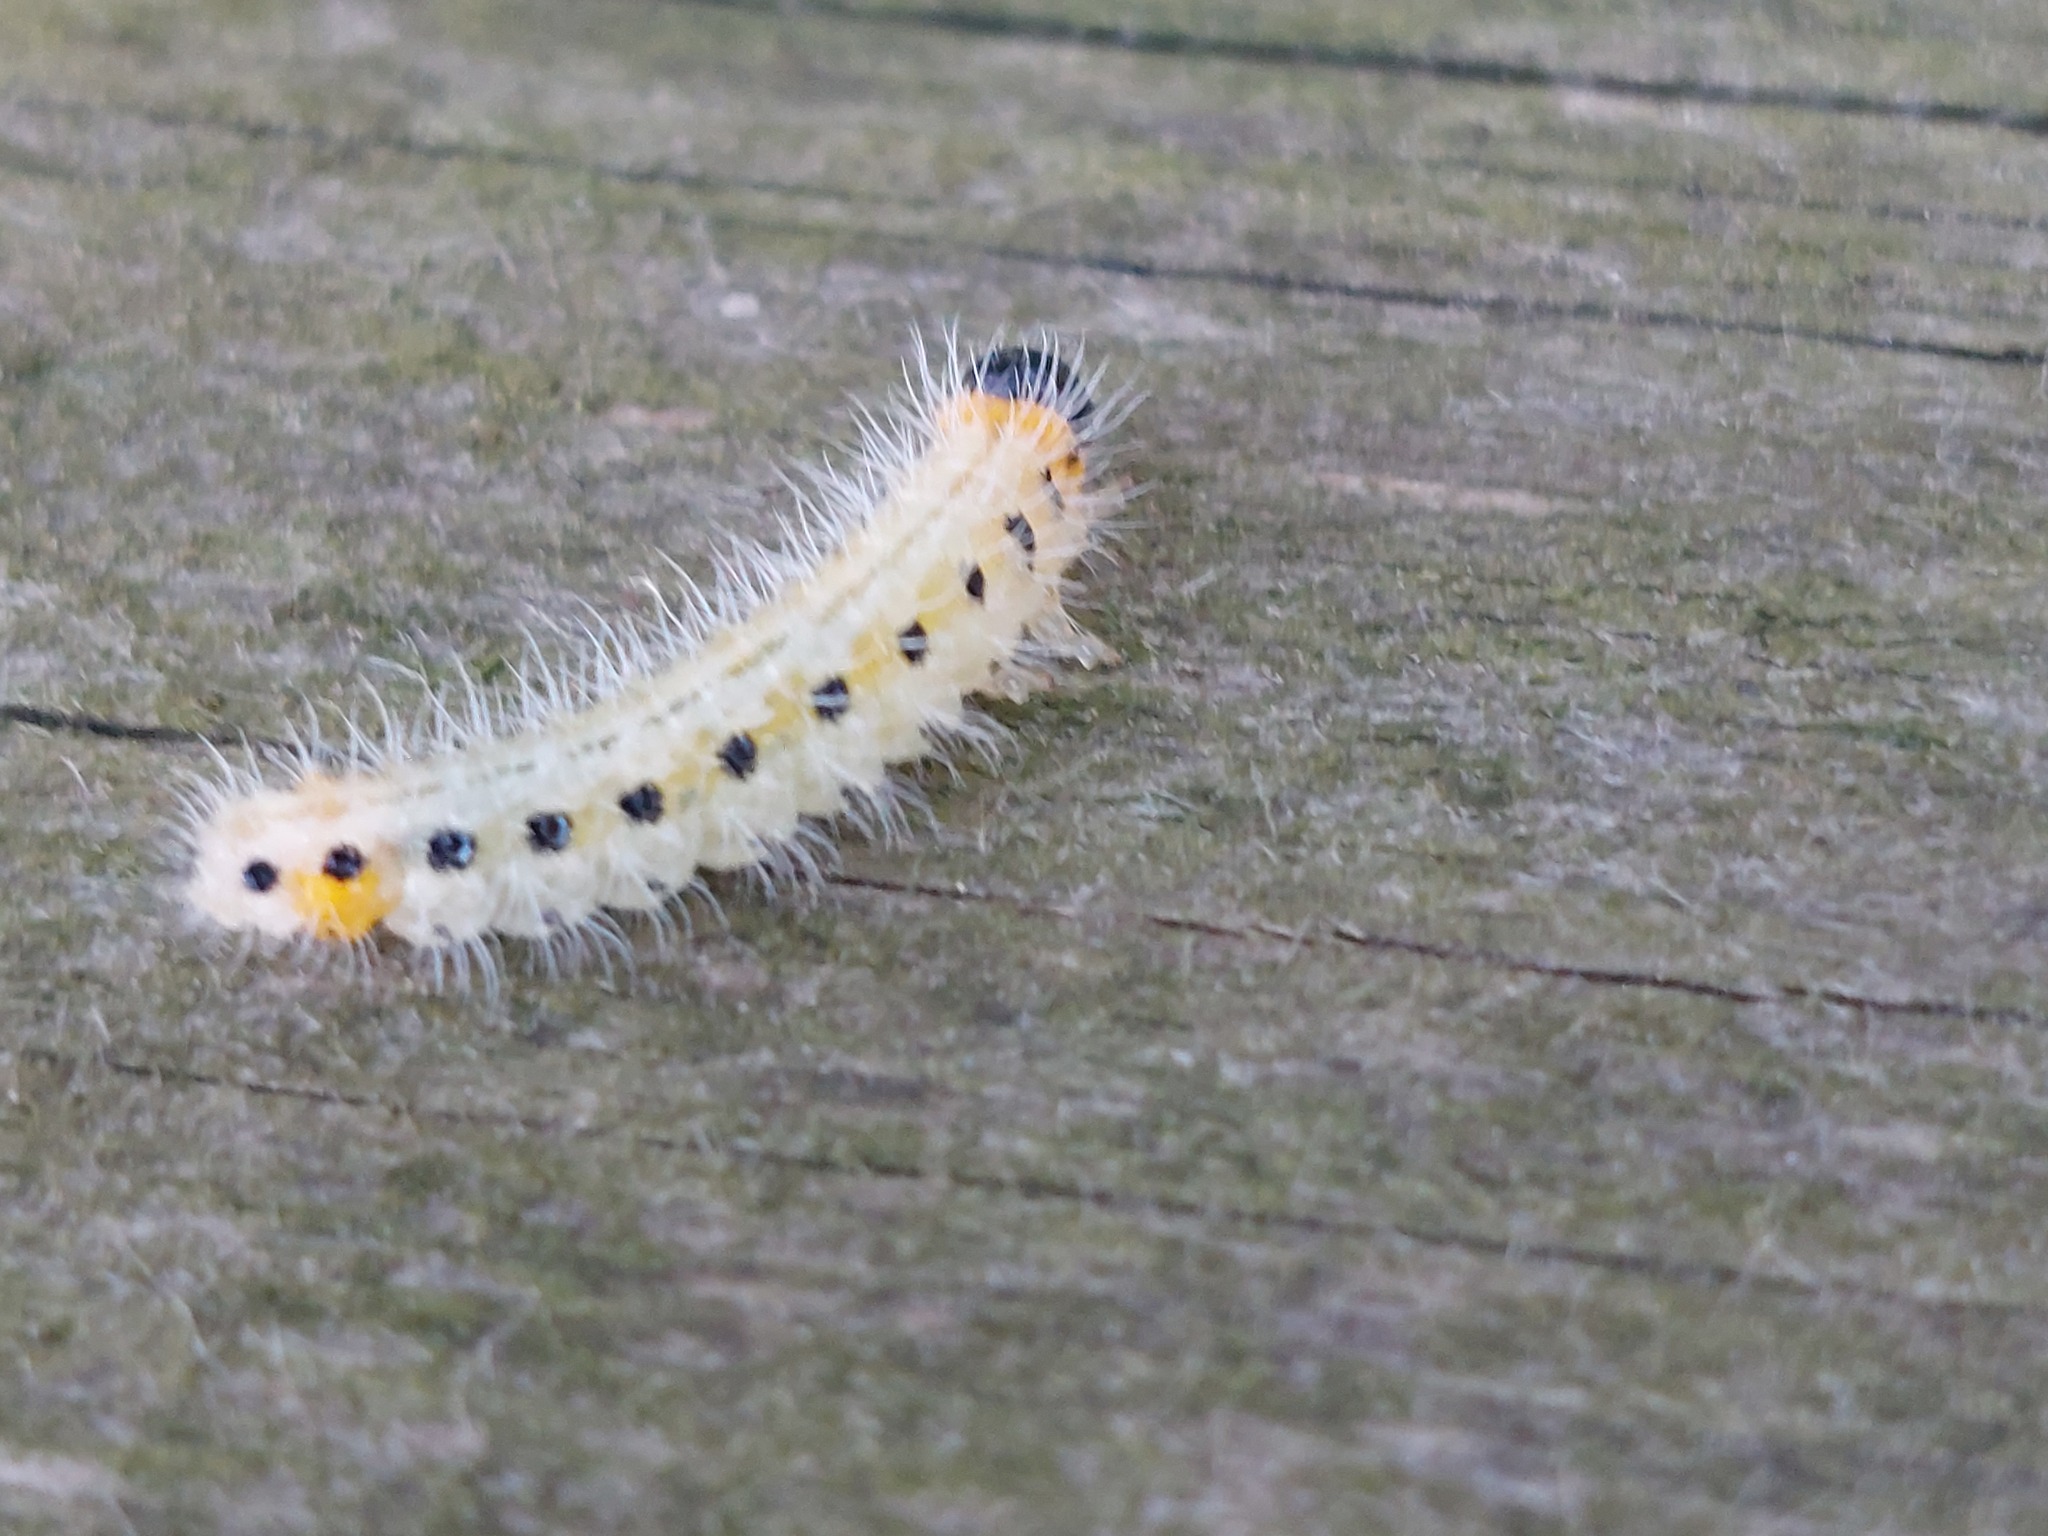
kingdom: Animalia
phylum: Arthropoda
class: Insecta
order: Hymenoptera
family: Tenthredinidae
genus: Cladius
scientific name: Cladius grandis
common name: Common sawfly
